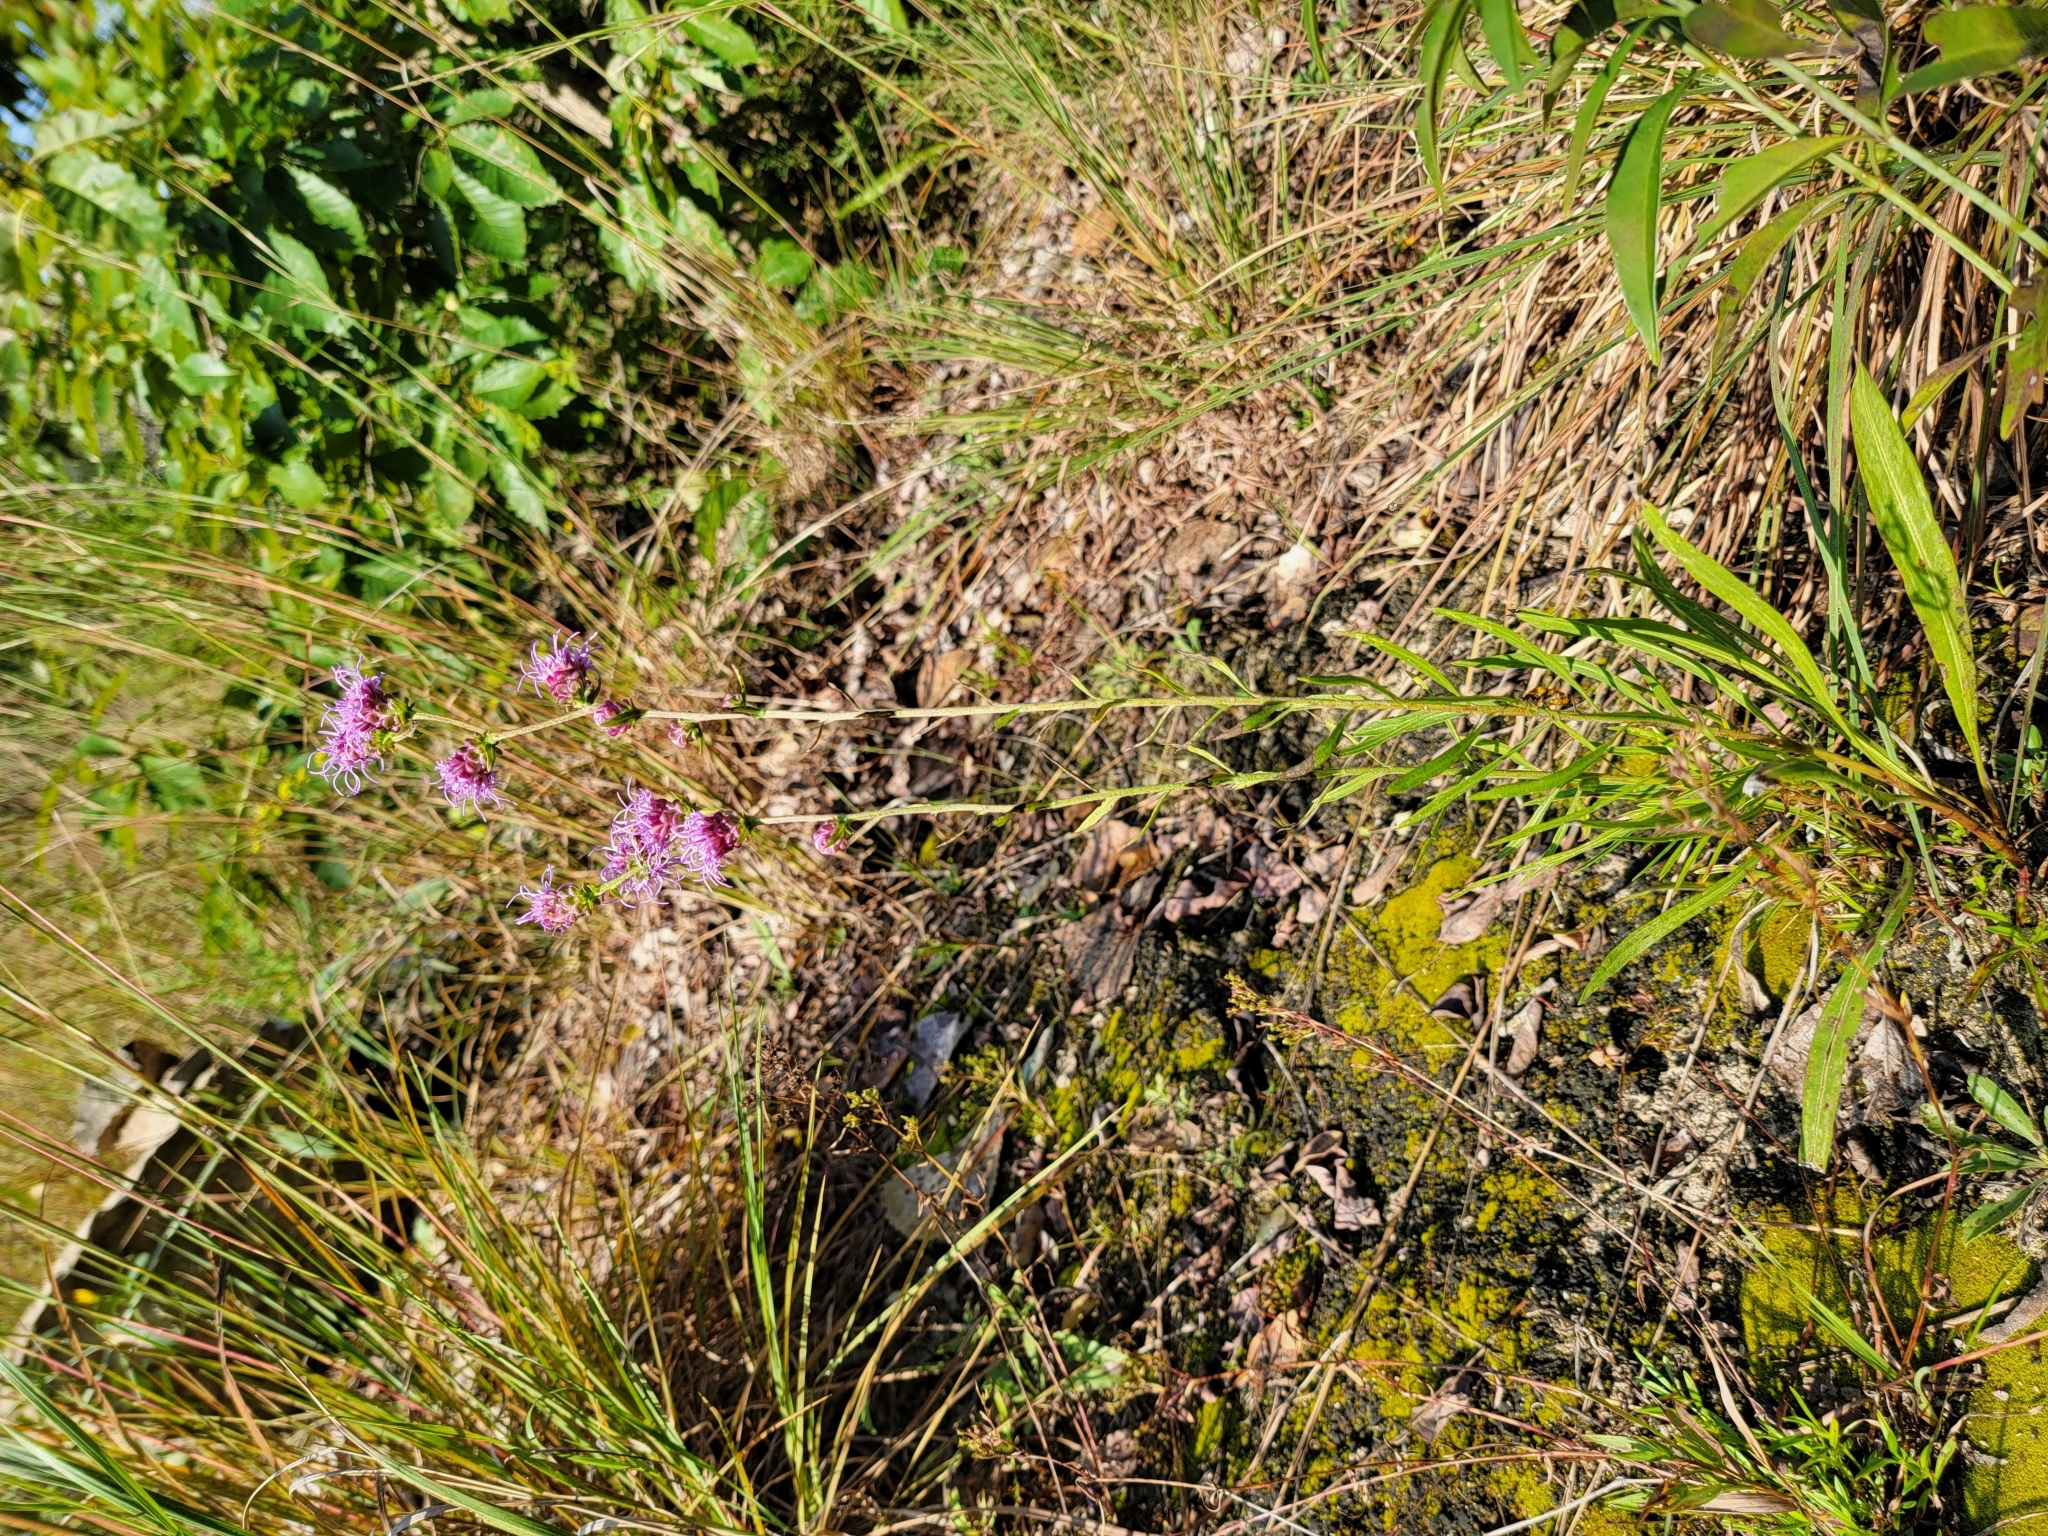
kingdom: Plantae
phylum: Tracheophyta
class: Magnoliopsida
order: Asterales
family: Asteraceae
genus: Liatris
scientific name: Liatris aspera
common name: Lacerate blazing-star
